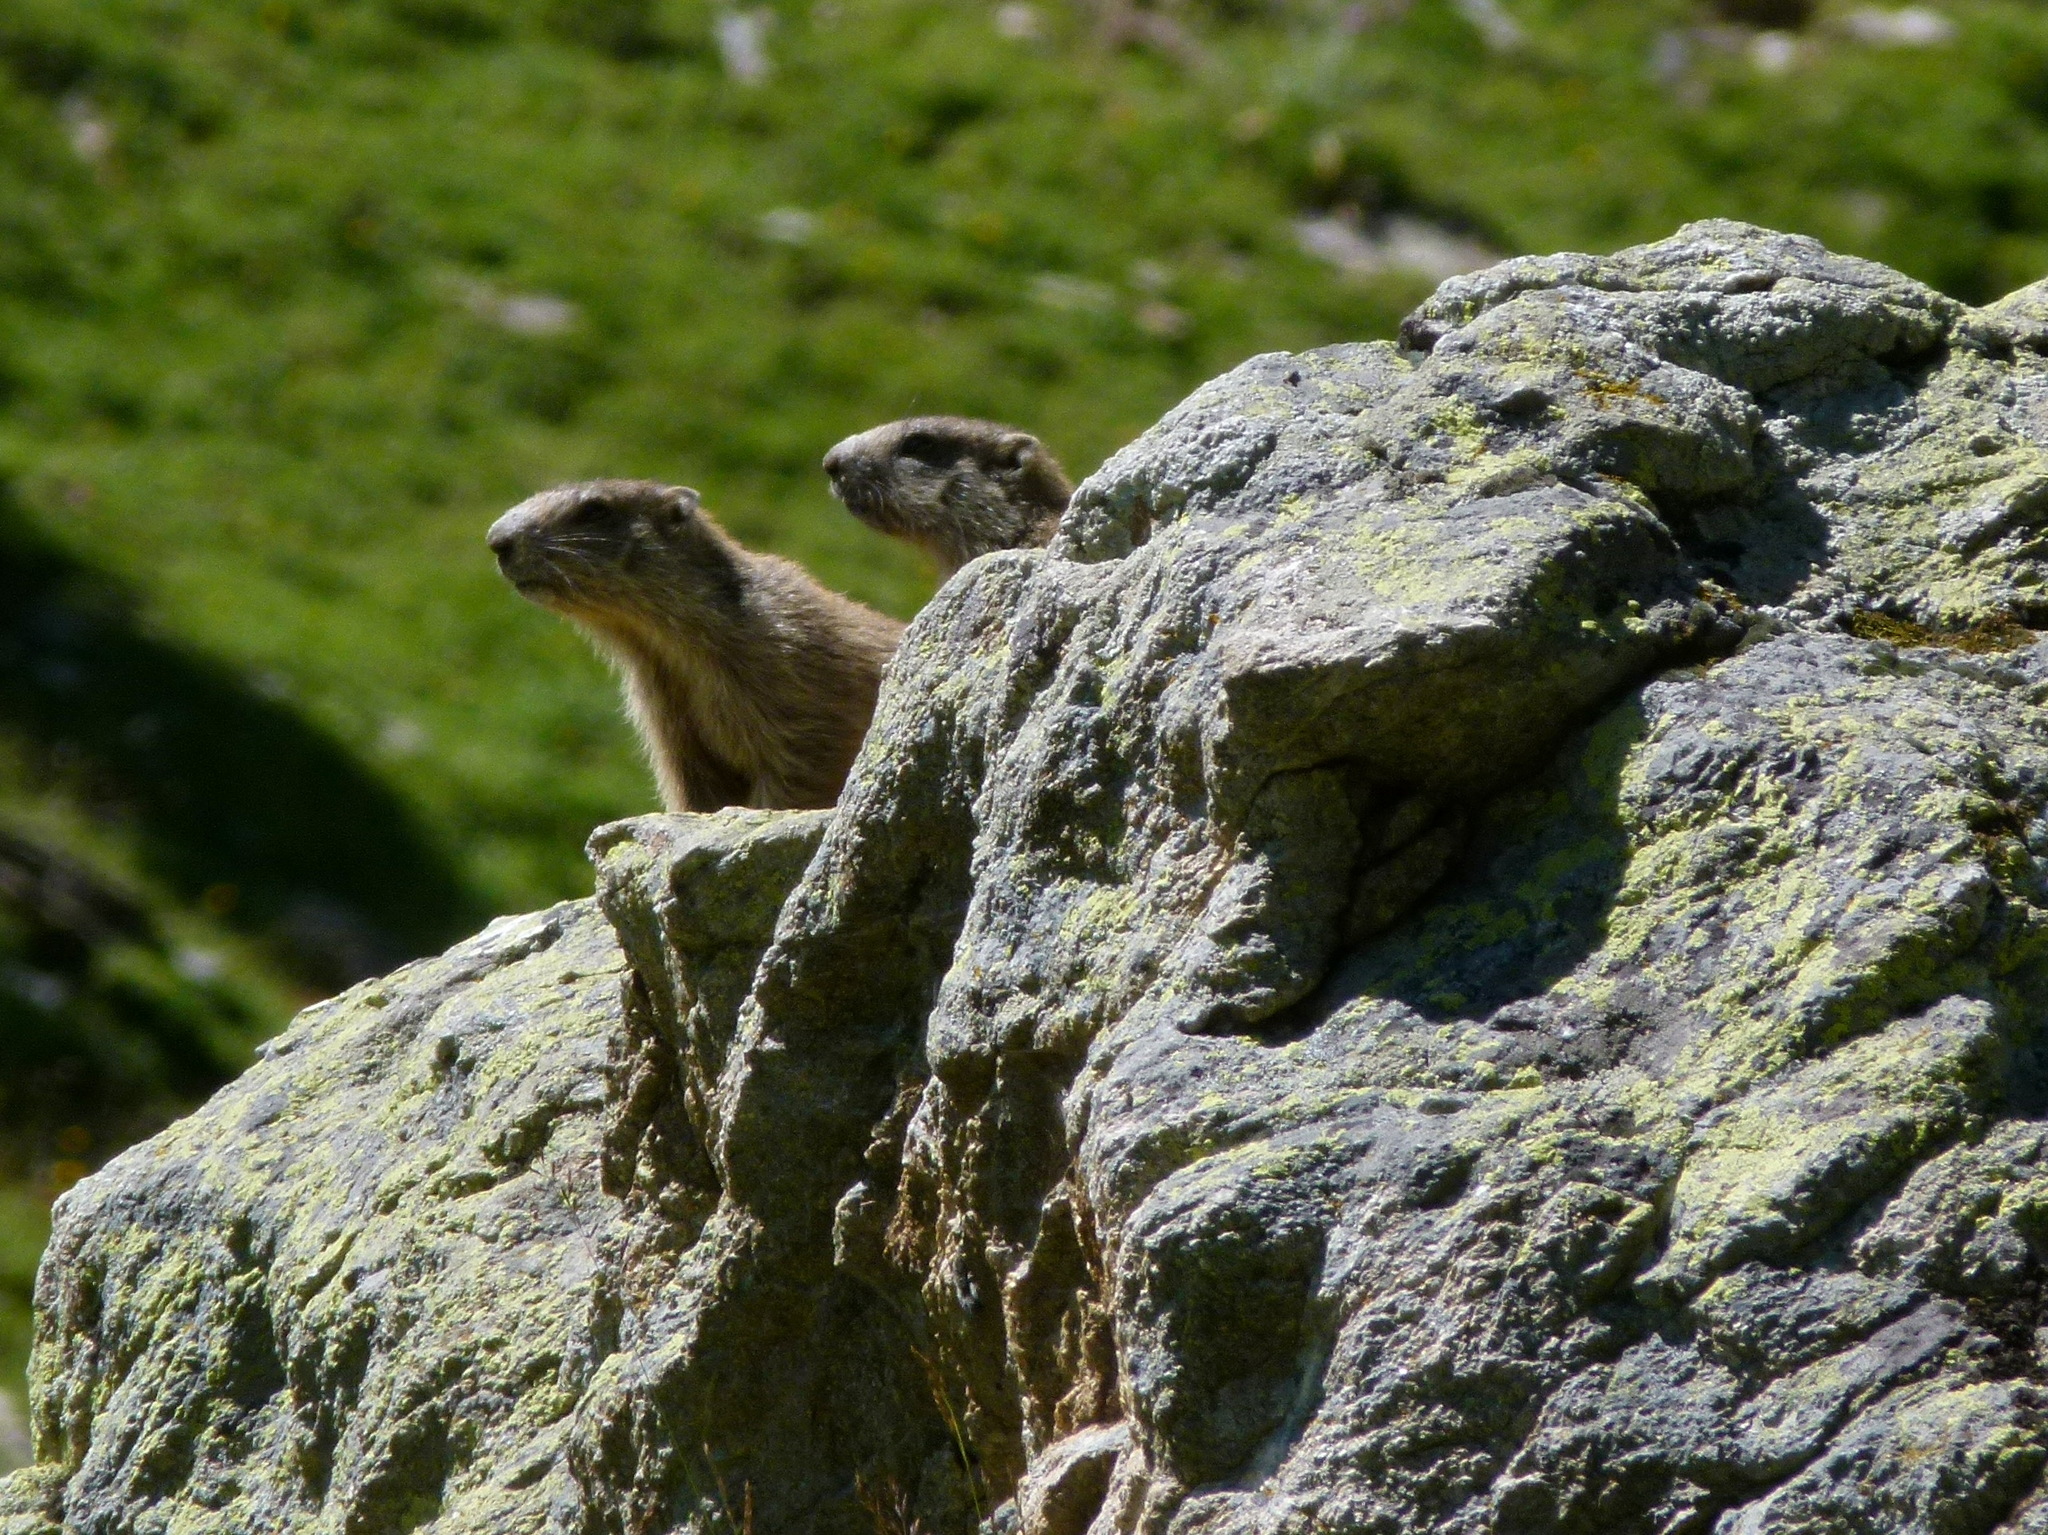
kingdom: Animalia
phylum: Chordata
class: Mammalia
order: Rodentia
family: Sciuridae
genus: Marmota
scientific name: Marmota marmota
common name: Alpine marmot
